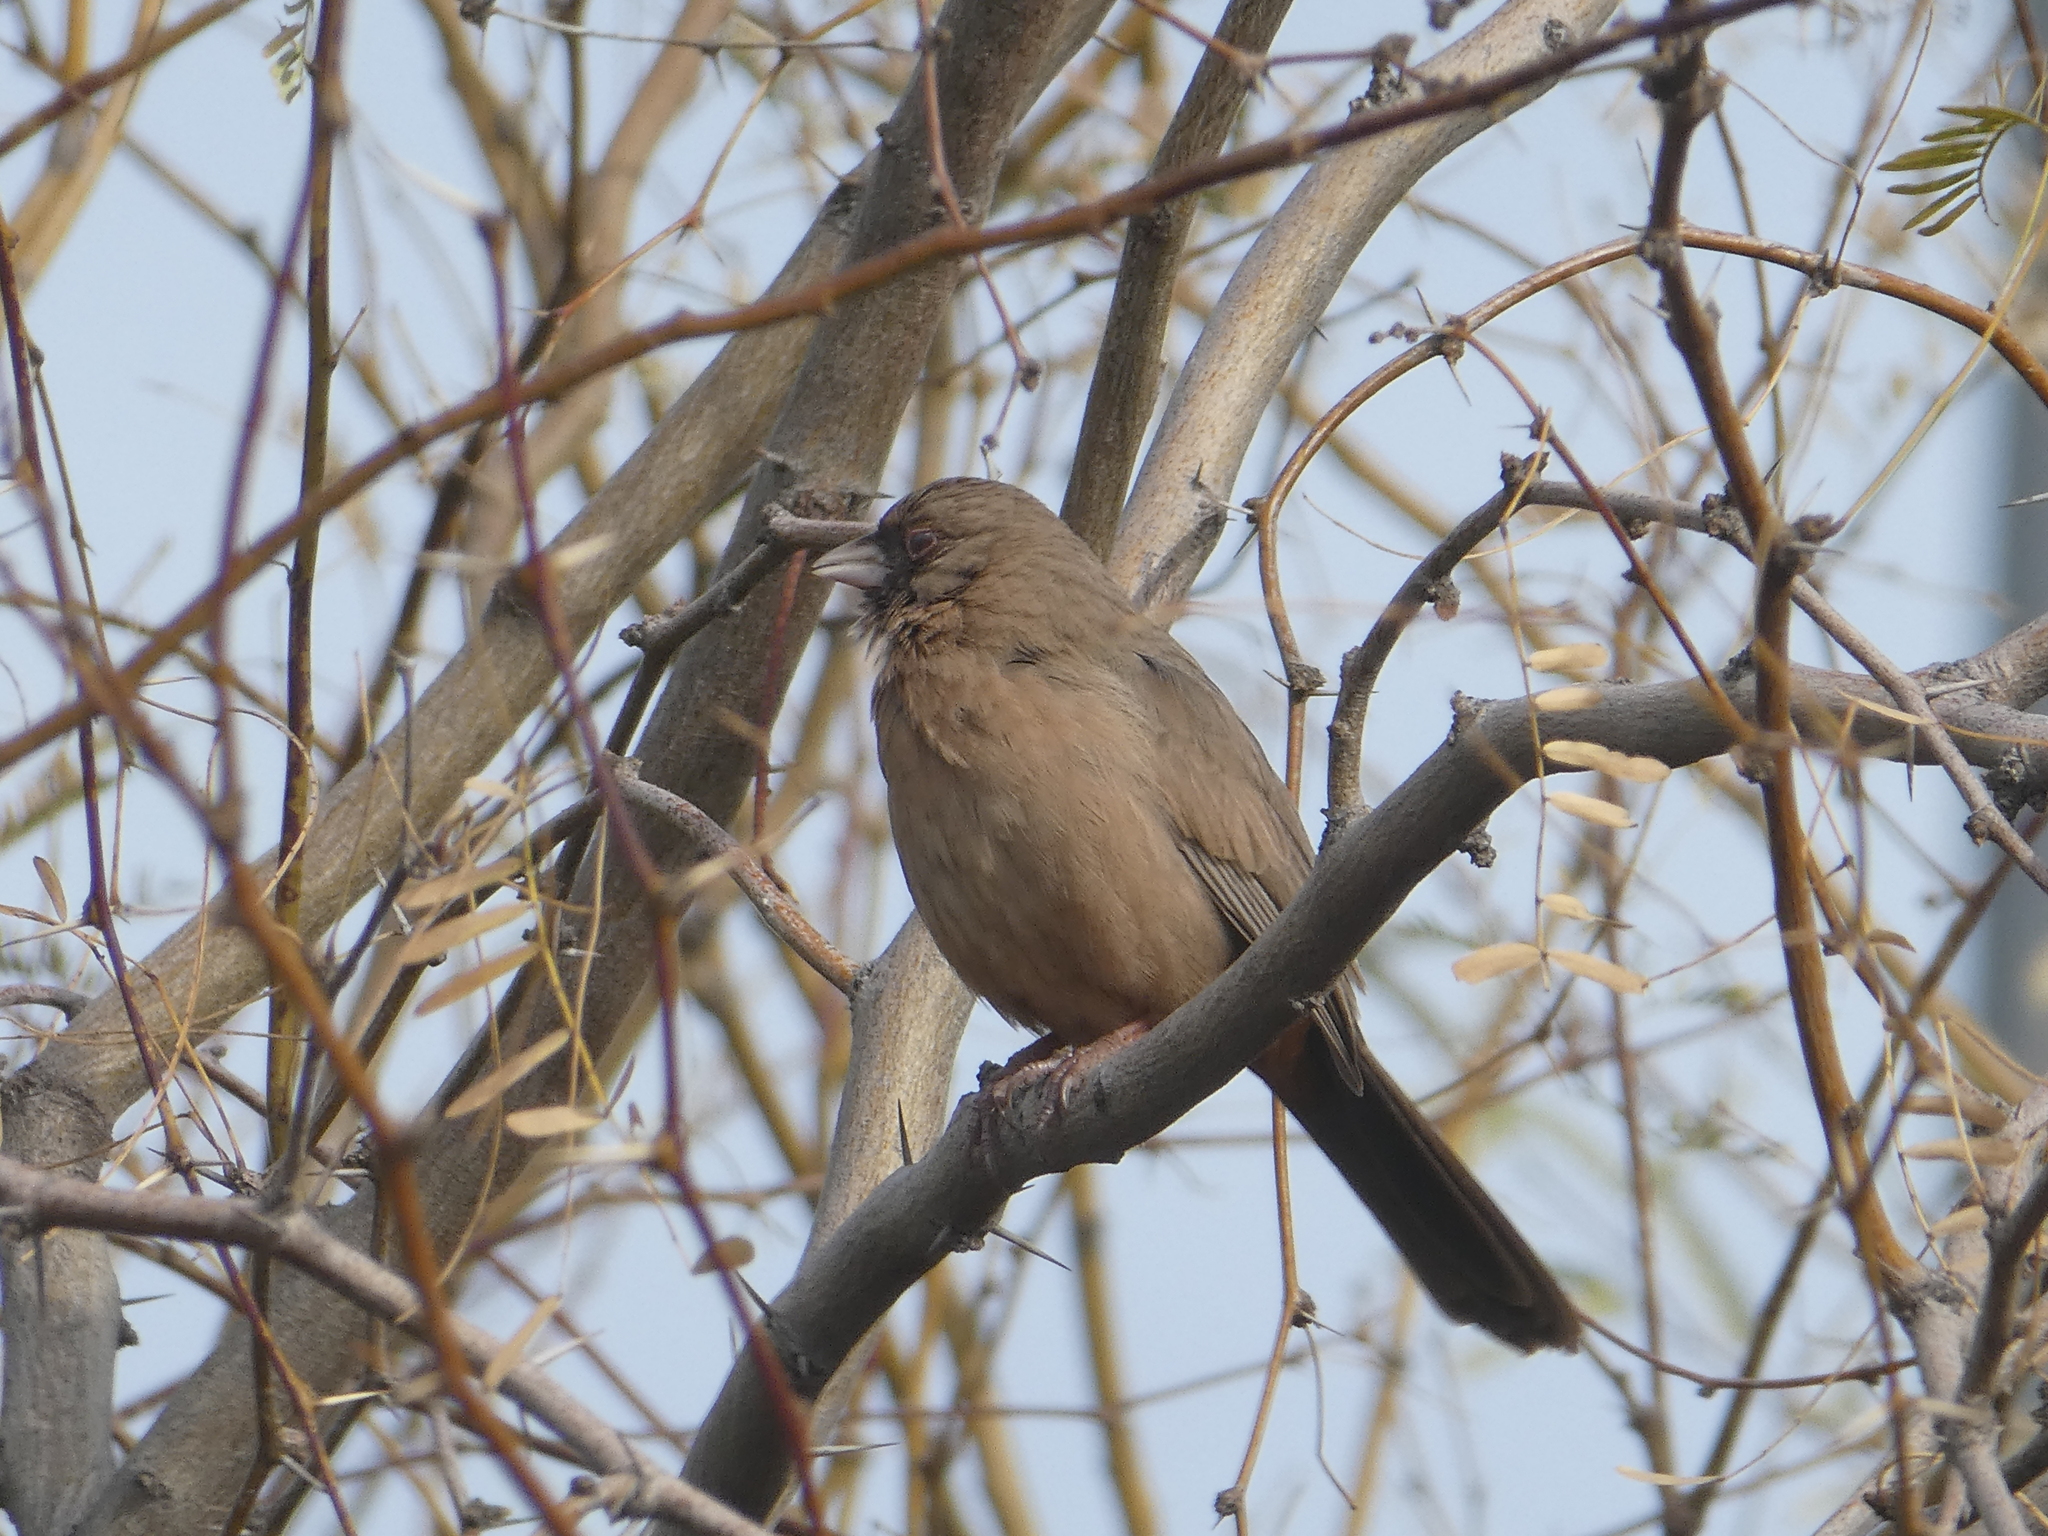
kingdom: Animalia
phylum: Chordata
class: Aves
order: Passeriformes
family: Passerellidae
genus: Melozone
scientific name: Melozone aberti
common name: Abert's towhee
